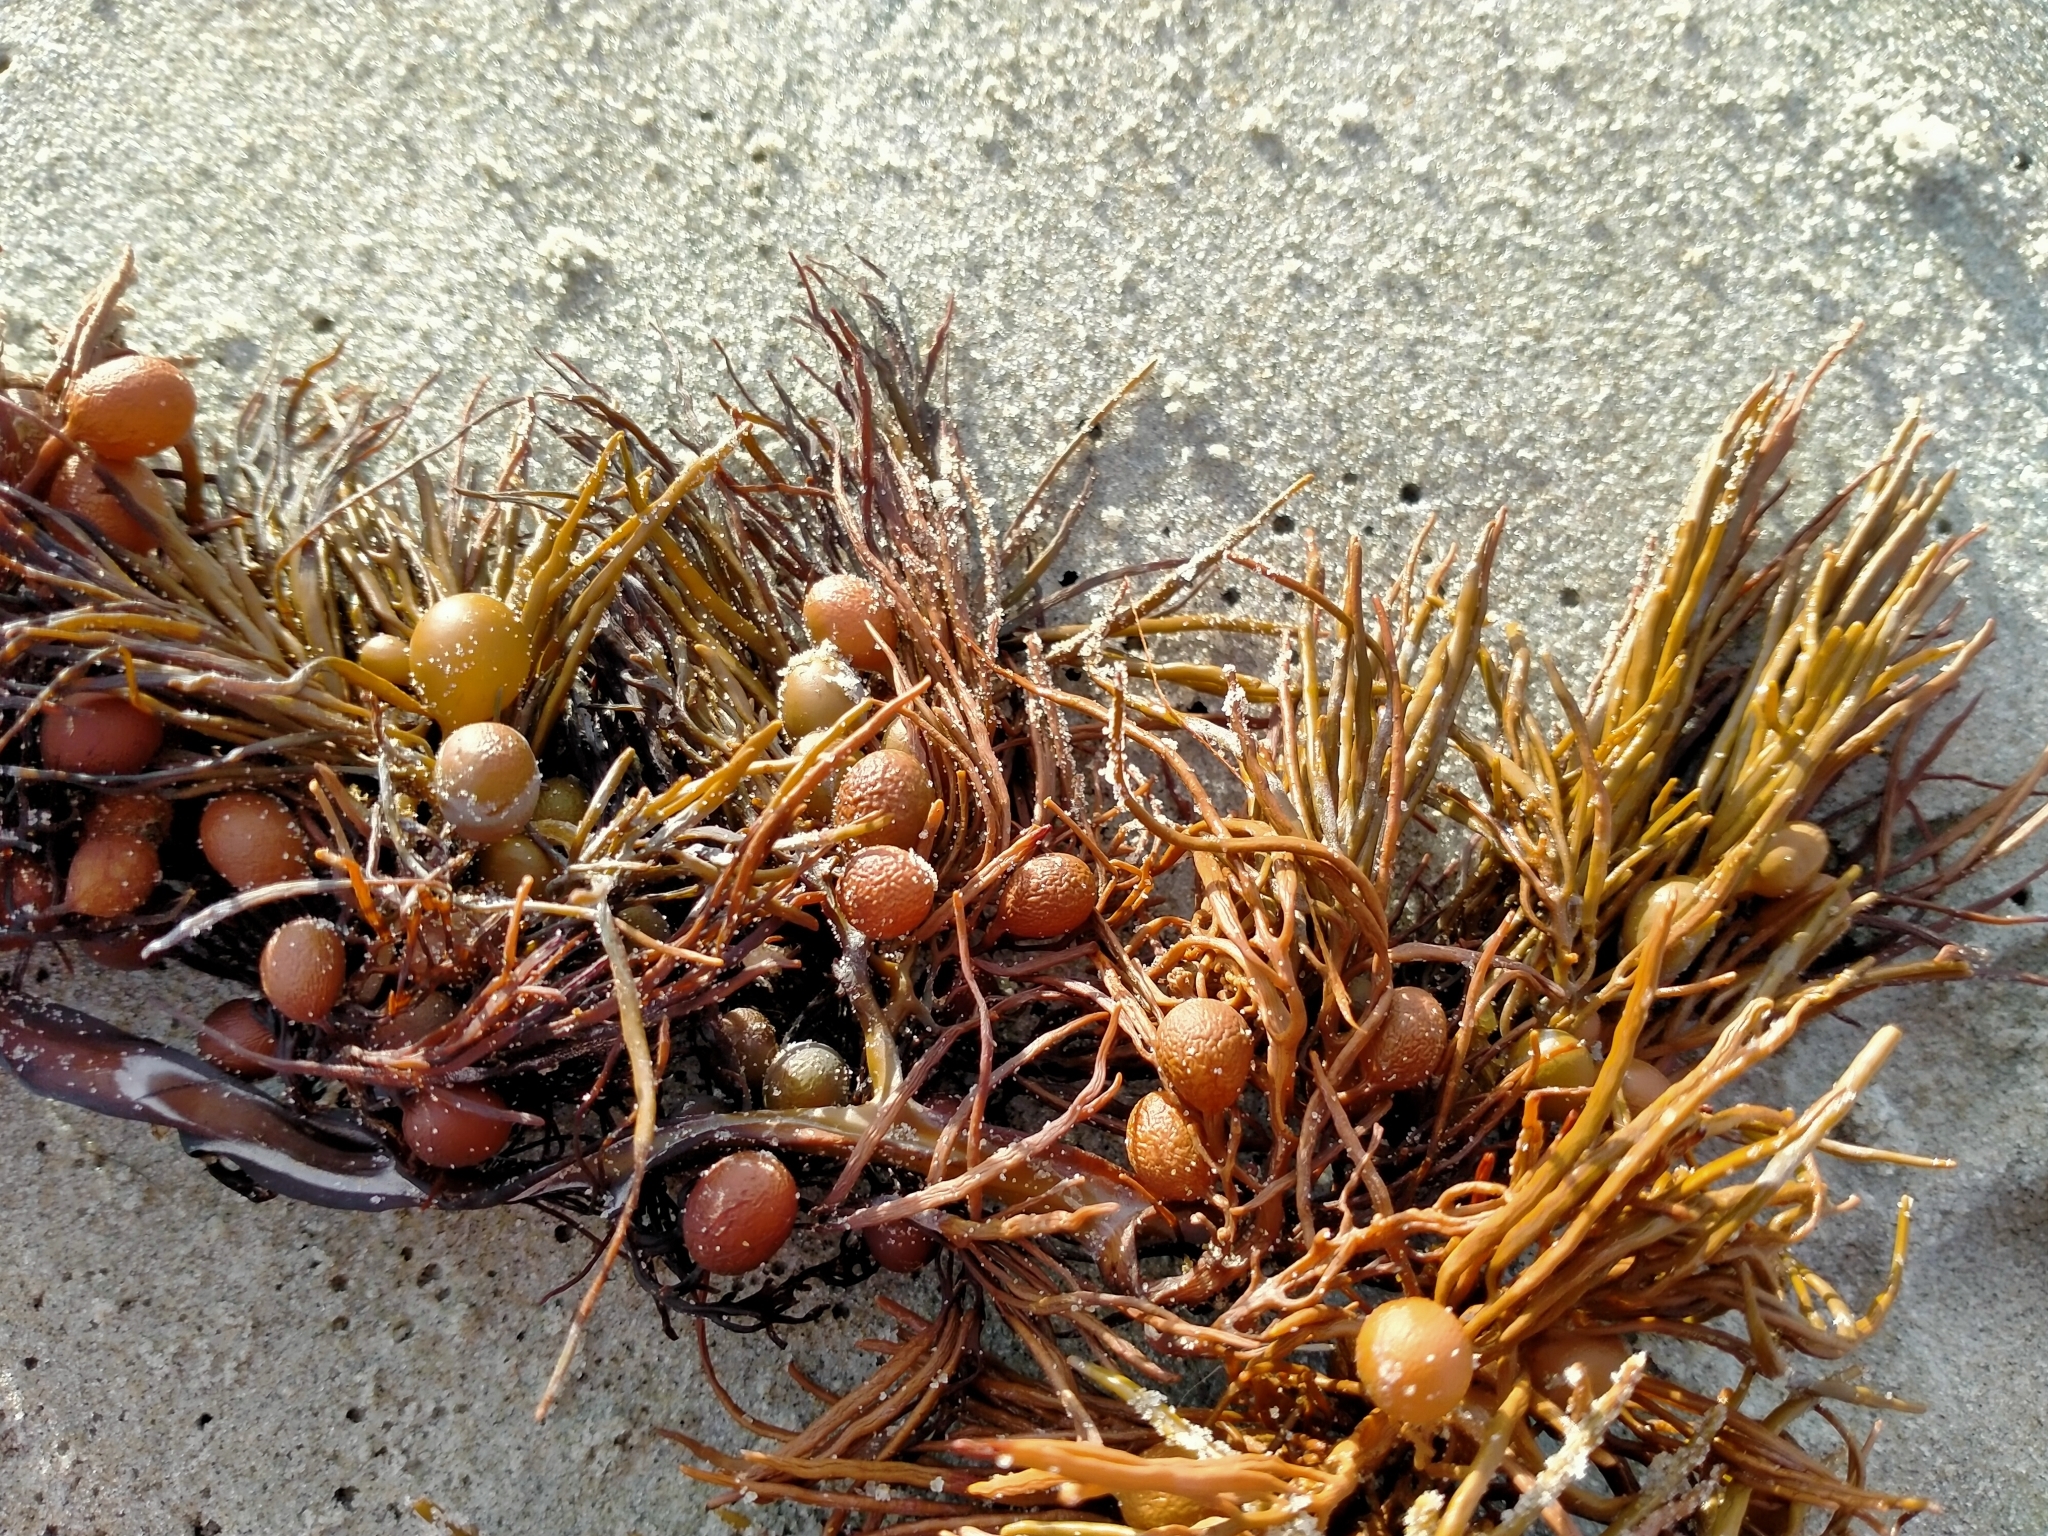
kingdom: Chromista
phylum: Ochrophyta
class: Phaeophyceae
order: Fucales
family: Sargassaceae
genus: Cystophora
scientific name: Cystophora retroflexa
